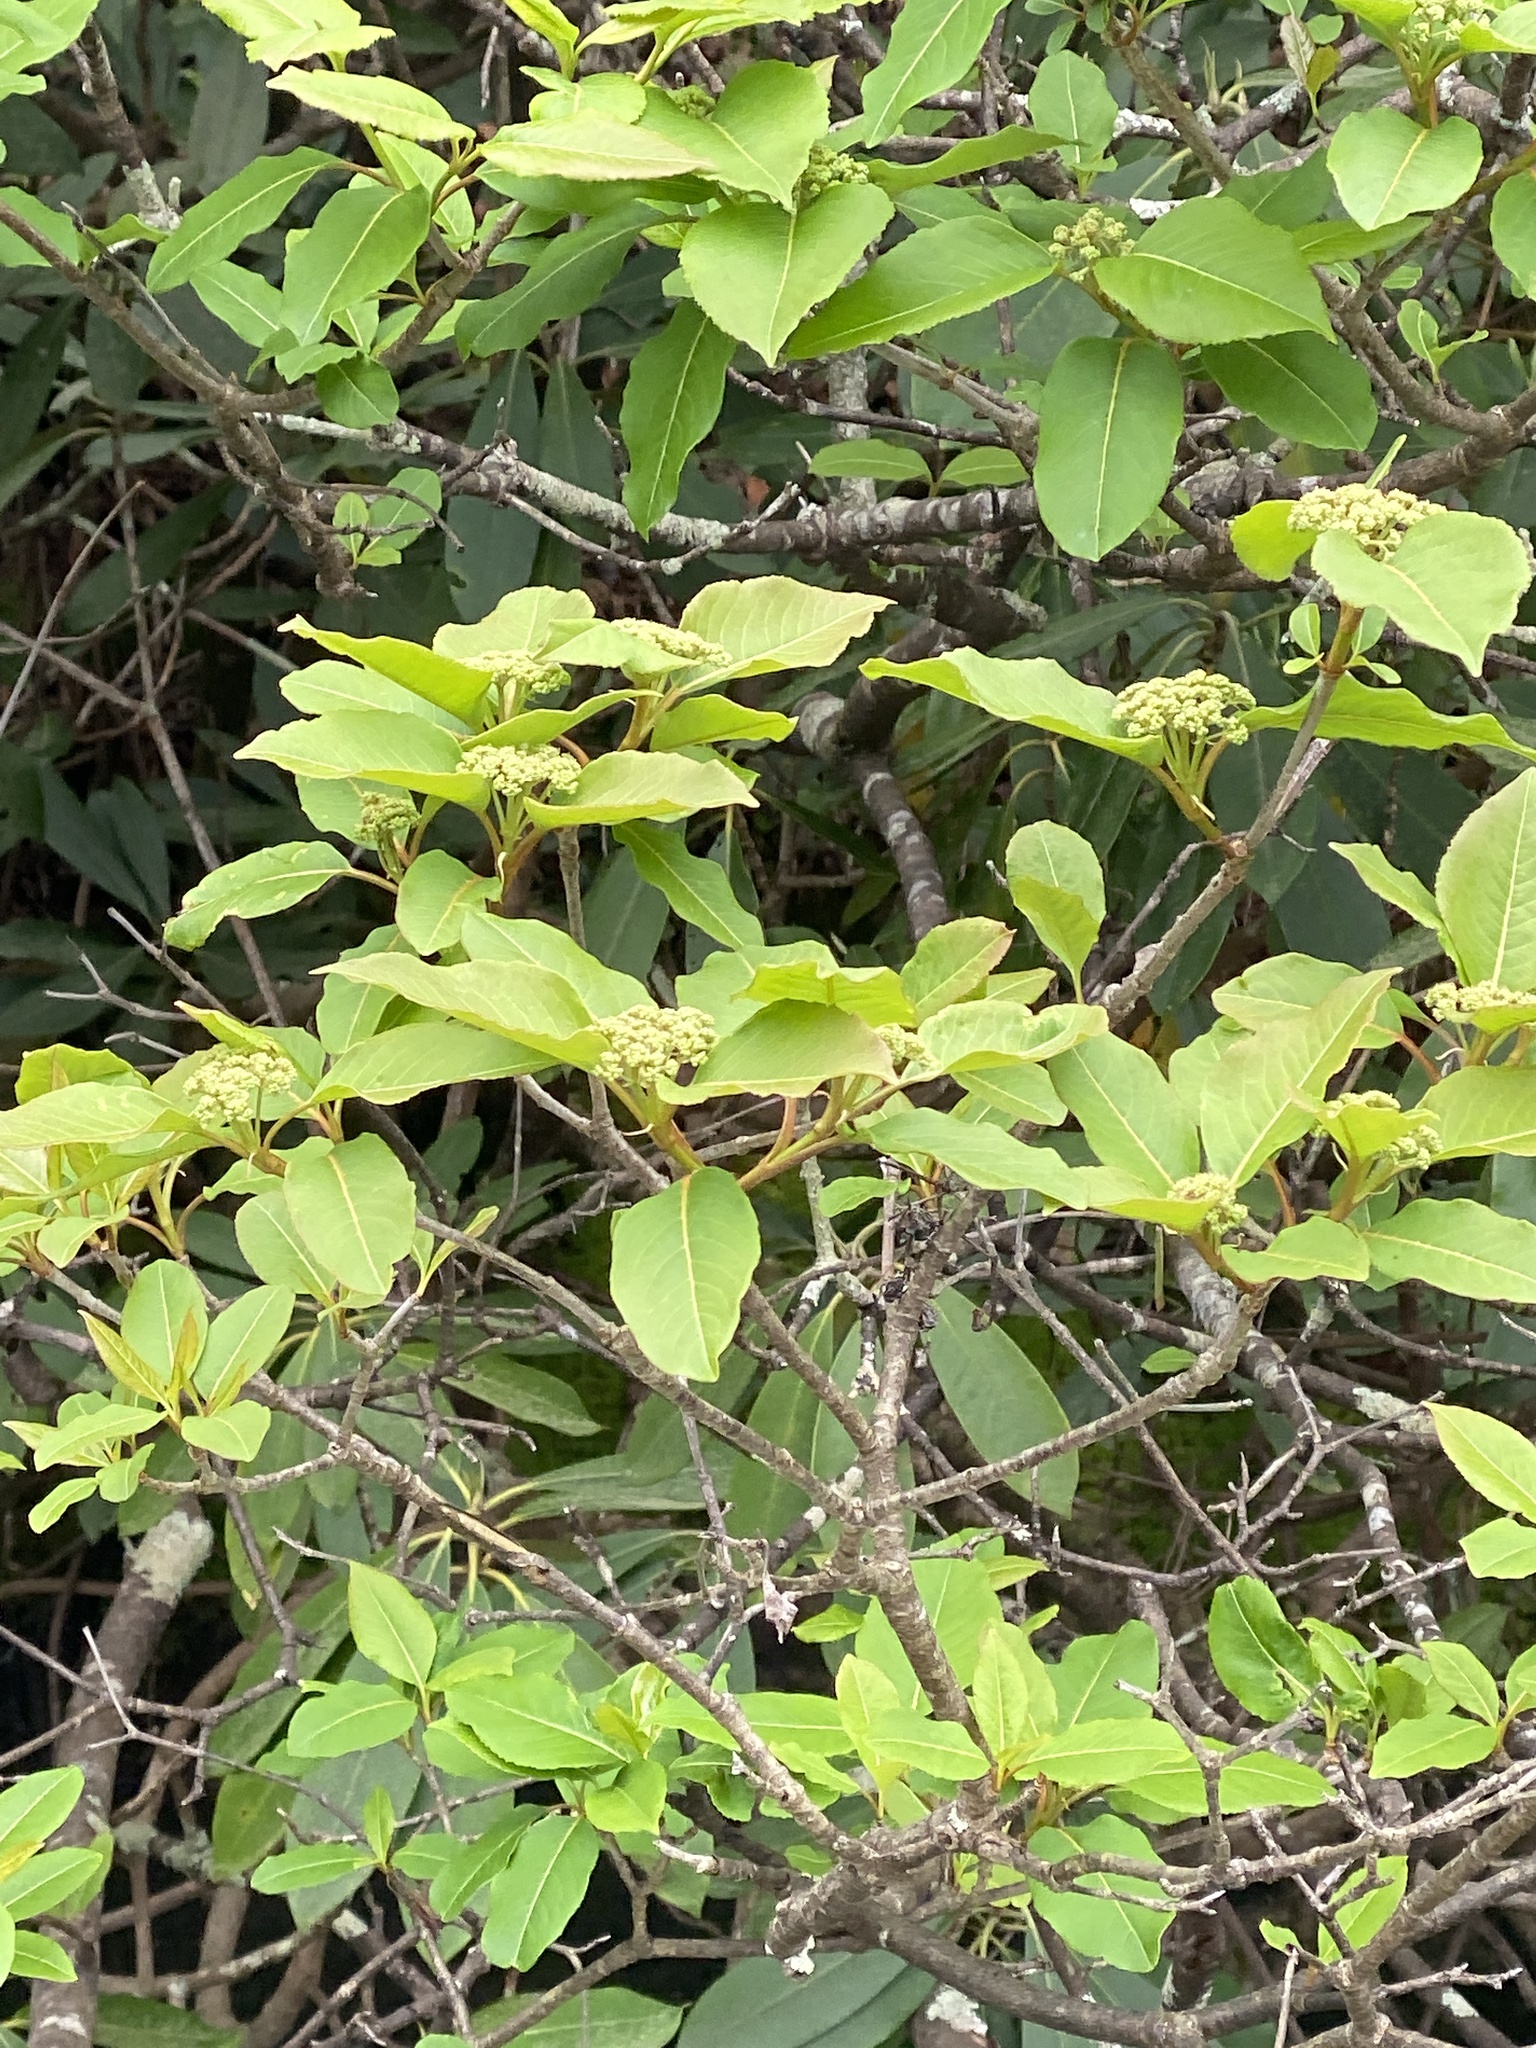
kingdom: Plantae
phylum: Tracheophyta
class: Magnoliopsida
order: Dipsacales
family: Viburnaceae
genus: Viburnum
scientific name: Viburnum cassinoides
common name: Swamp haw
